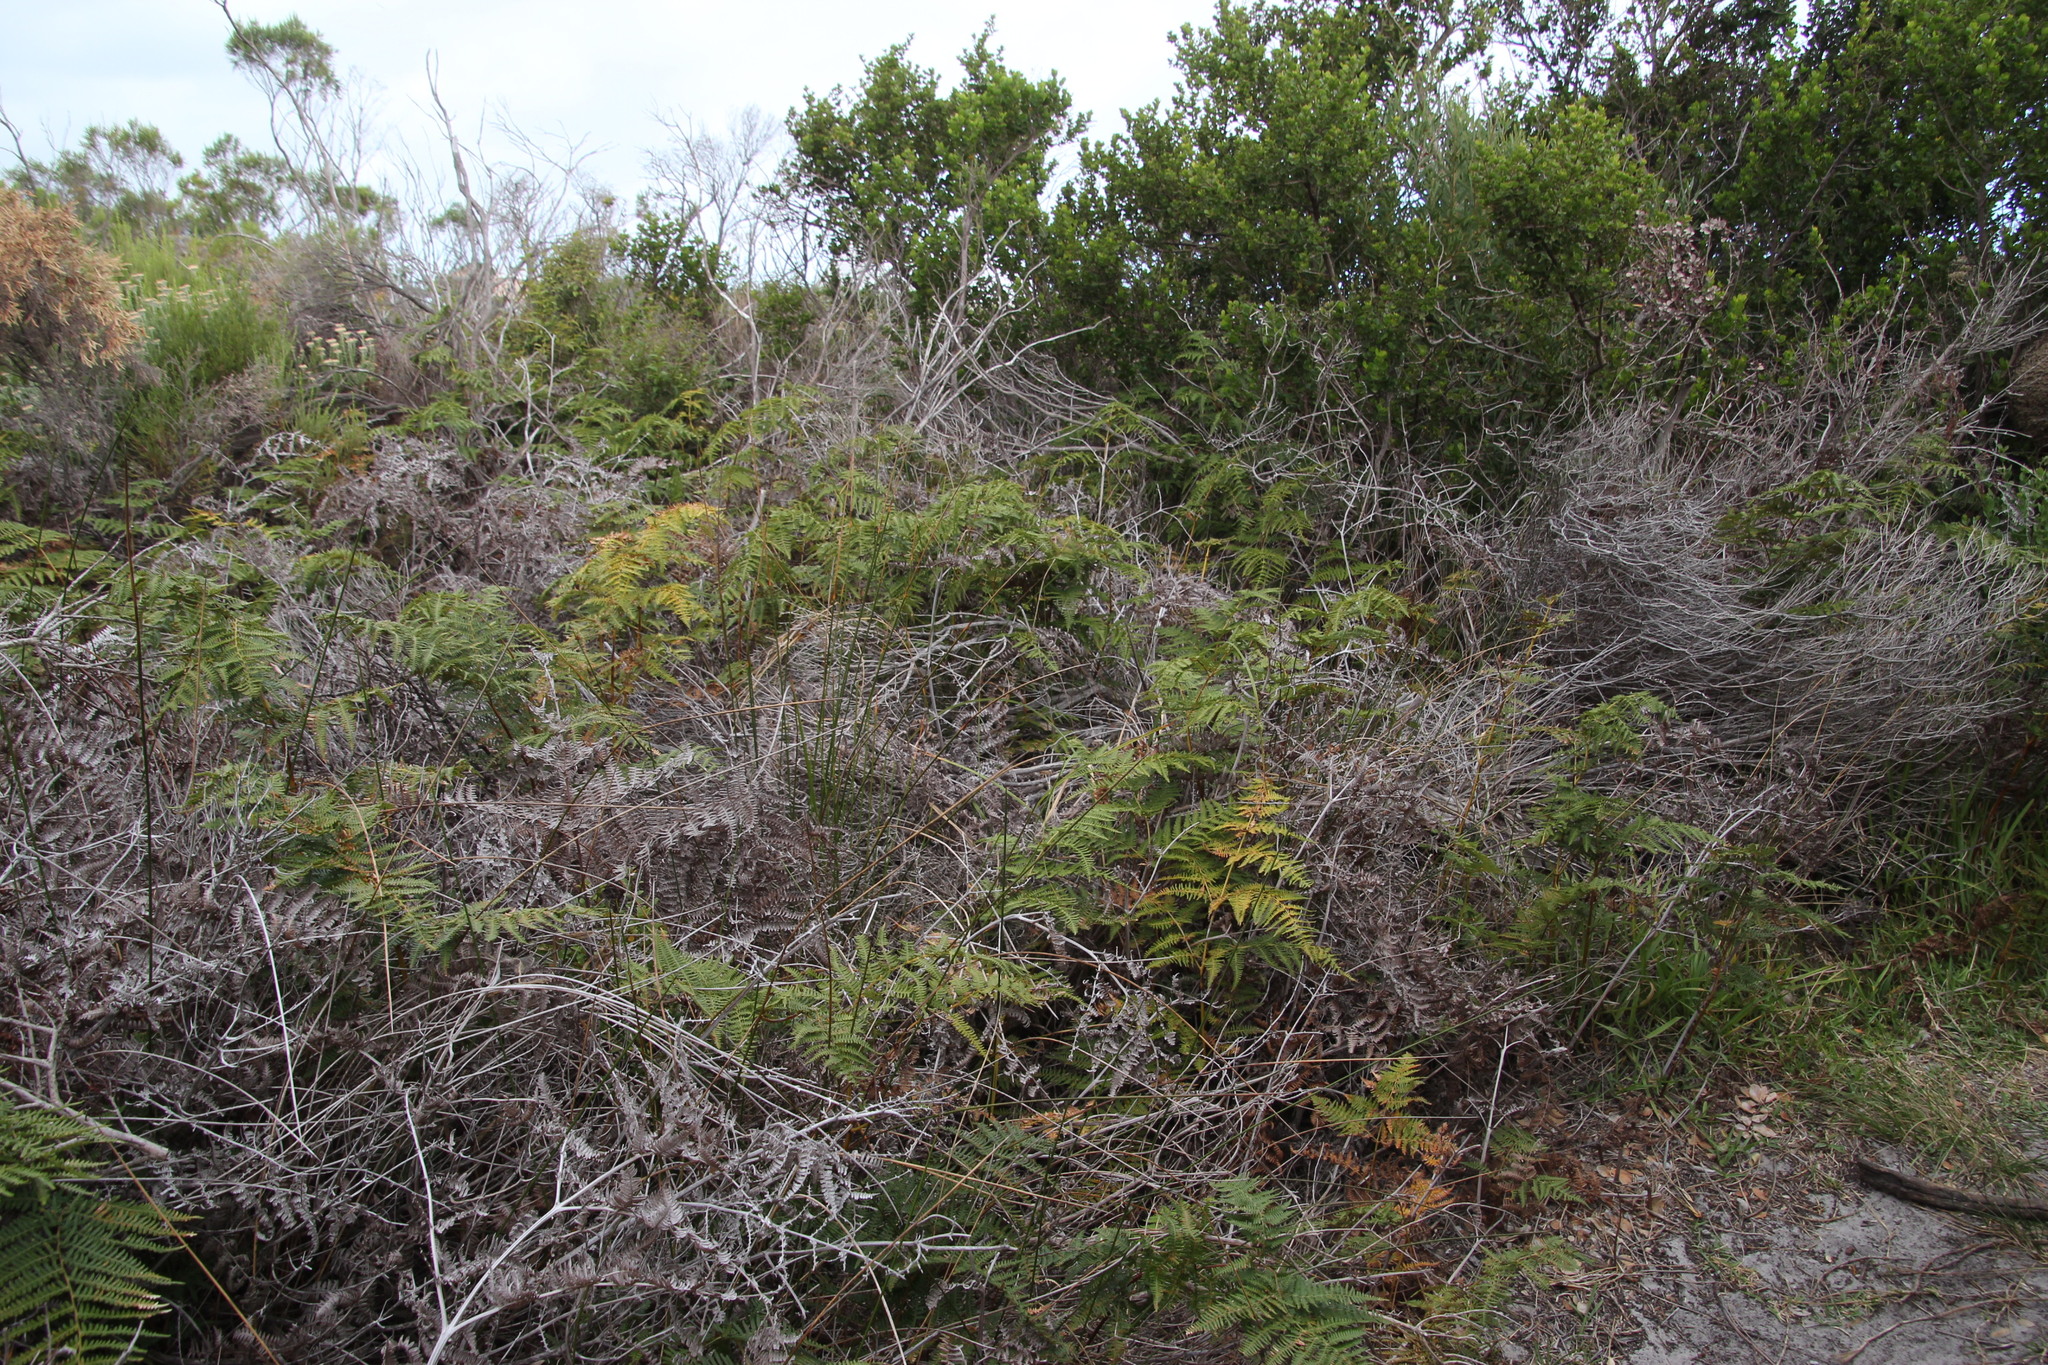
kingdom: Plantae
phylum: Tracheophyta
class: Polypodiopsida
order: Polypodiales
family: Dennstaedtiaceae
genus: Pteridium
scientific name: Pteridium aquilinum
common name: Bracken
